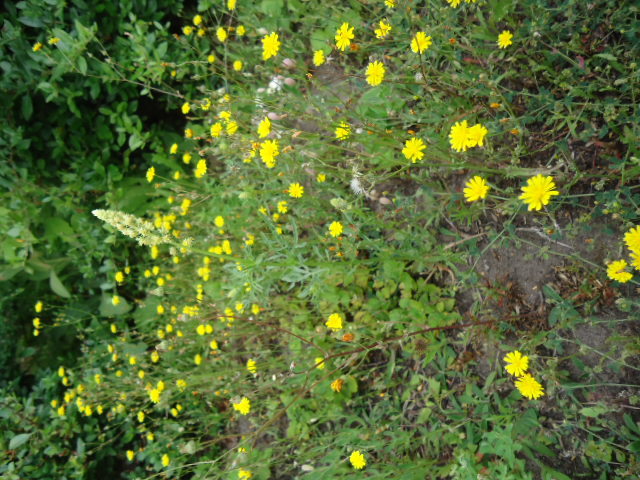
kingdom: Plantae
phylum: Tracheophyta
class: Magnoliopsida
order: Brassicales
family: Resedaceae
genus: Reseda
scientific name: Reseda lutea
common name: Wild mignonette
